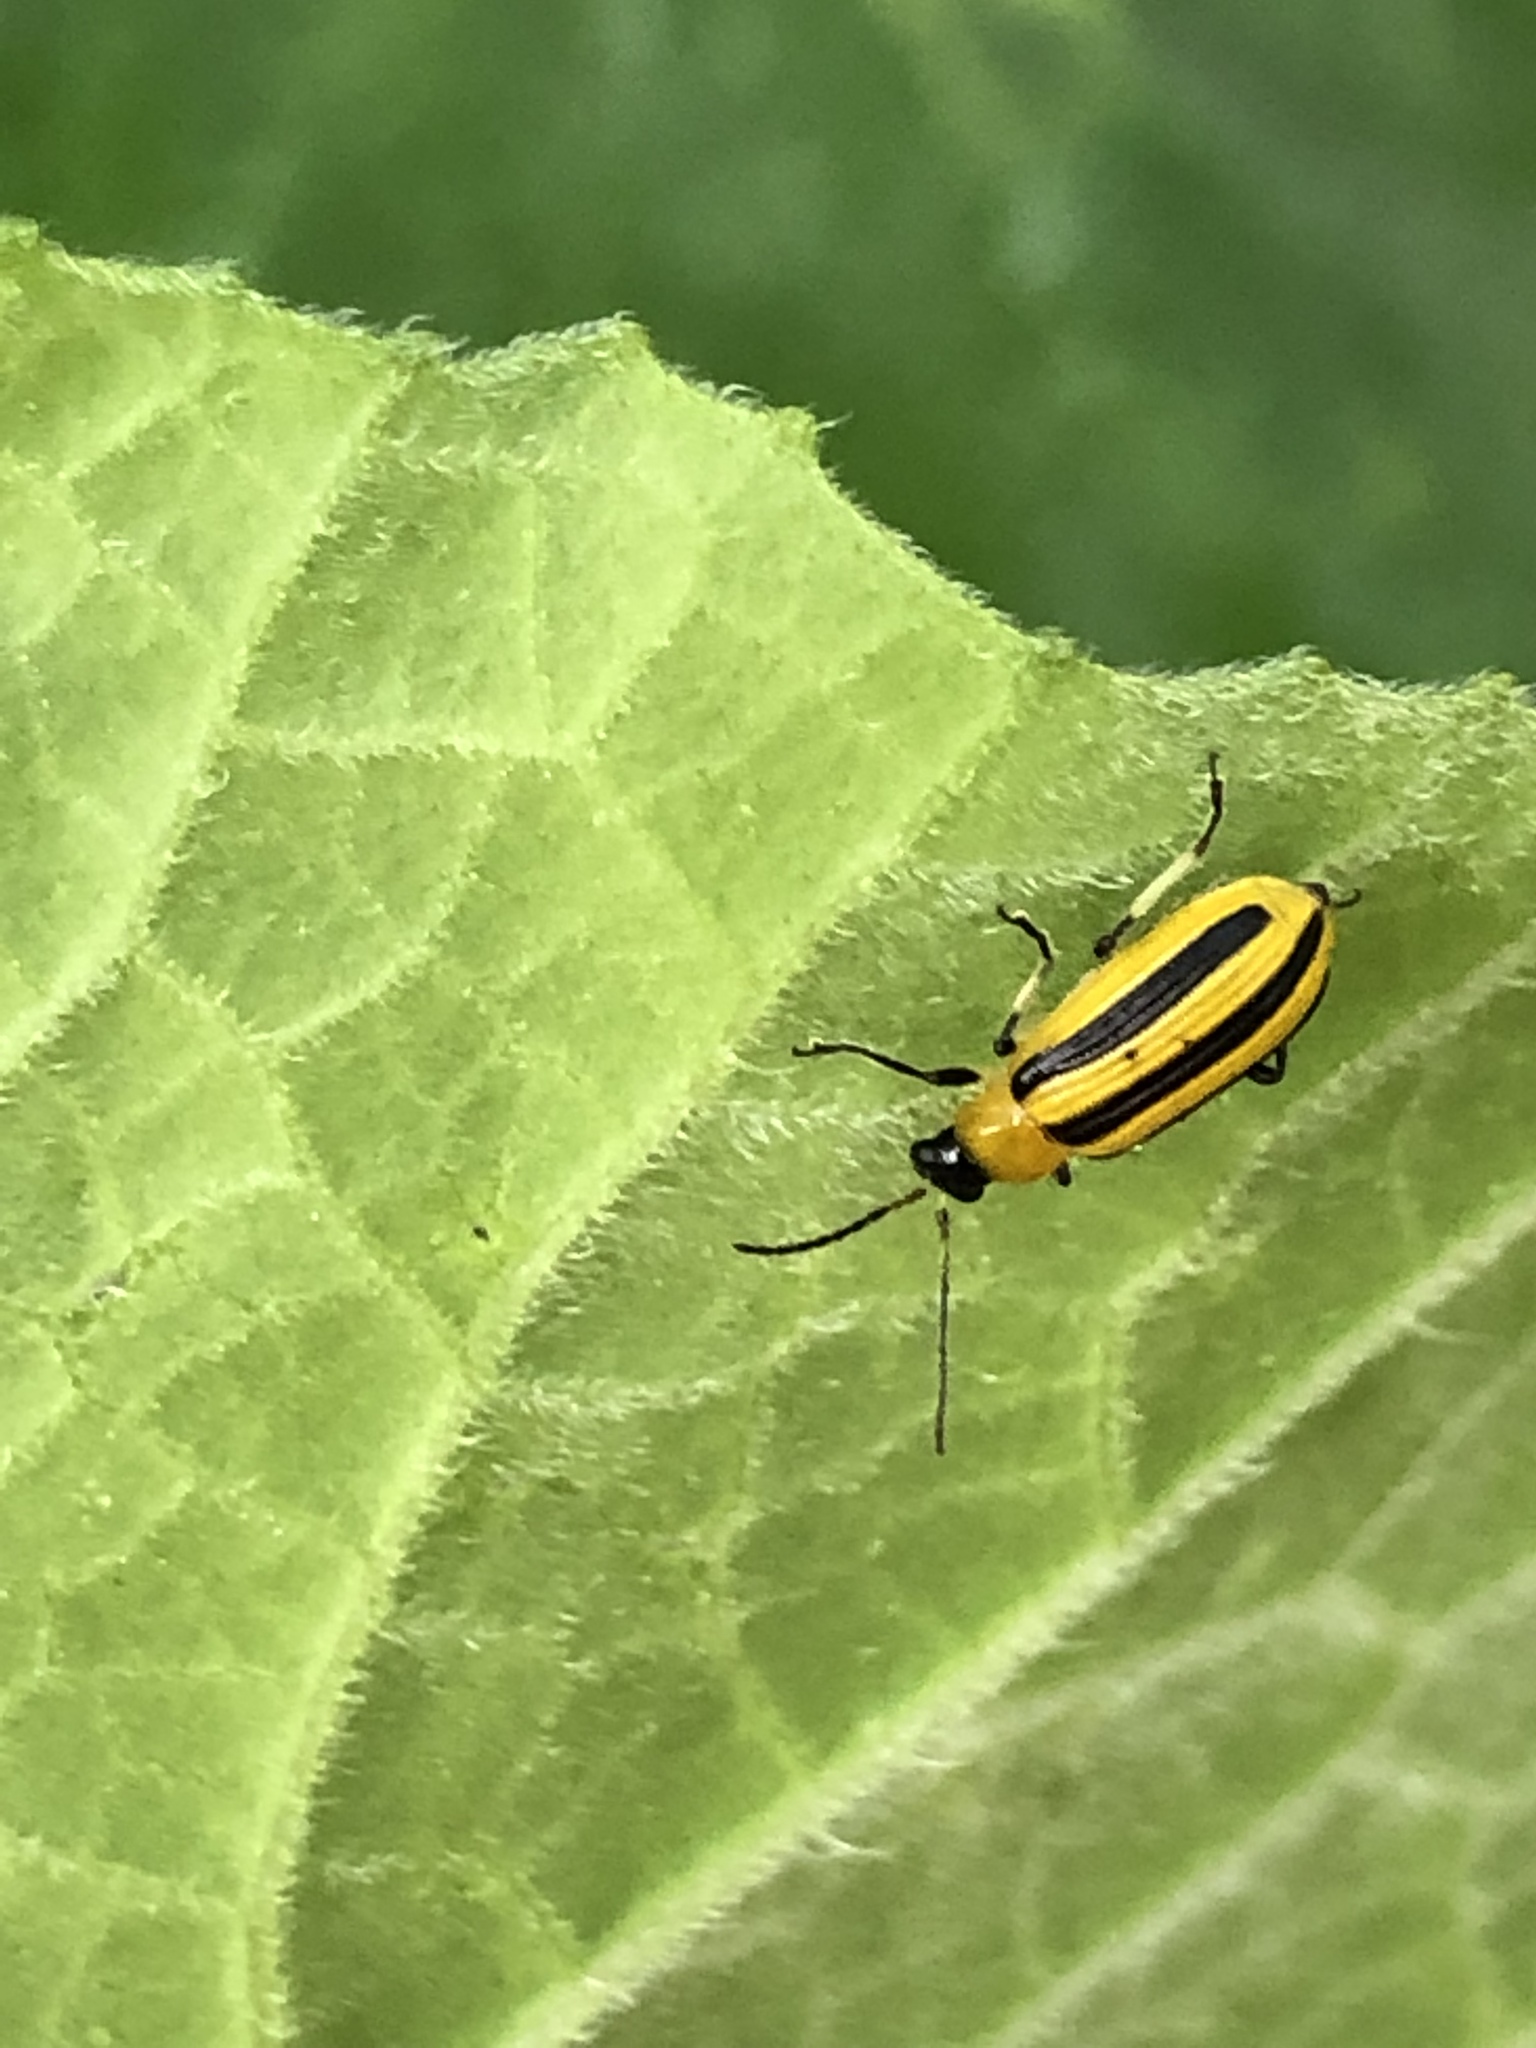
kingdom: Animalia
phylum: Arthropoda
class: Insecta
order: Coleoptera
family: Chrysomelidae
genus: Acalymma
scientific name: Acalymma vittatum
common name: Striped cucumber beetle
